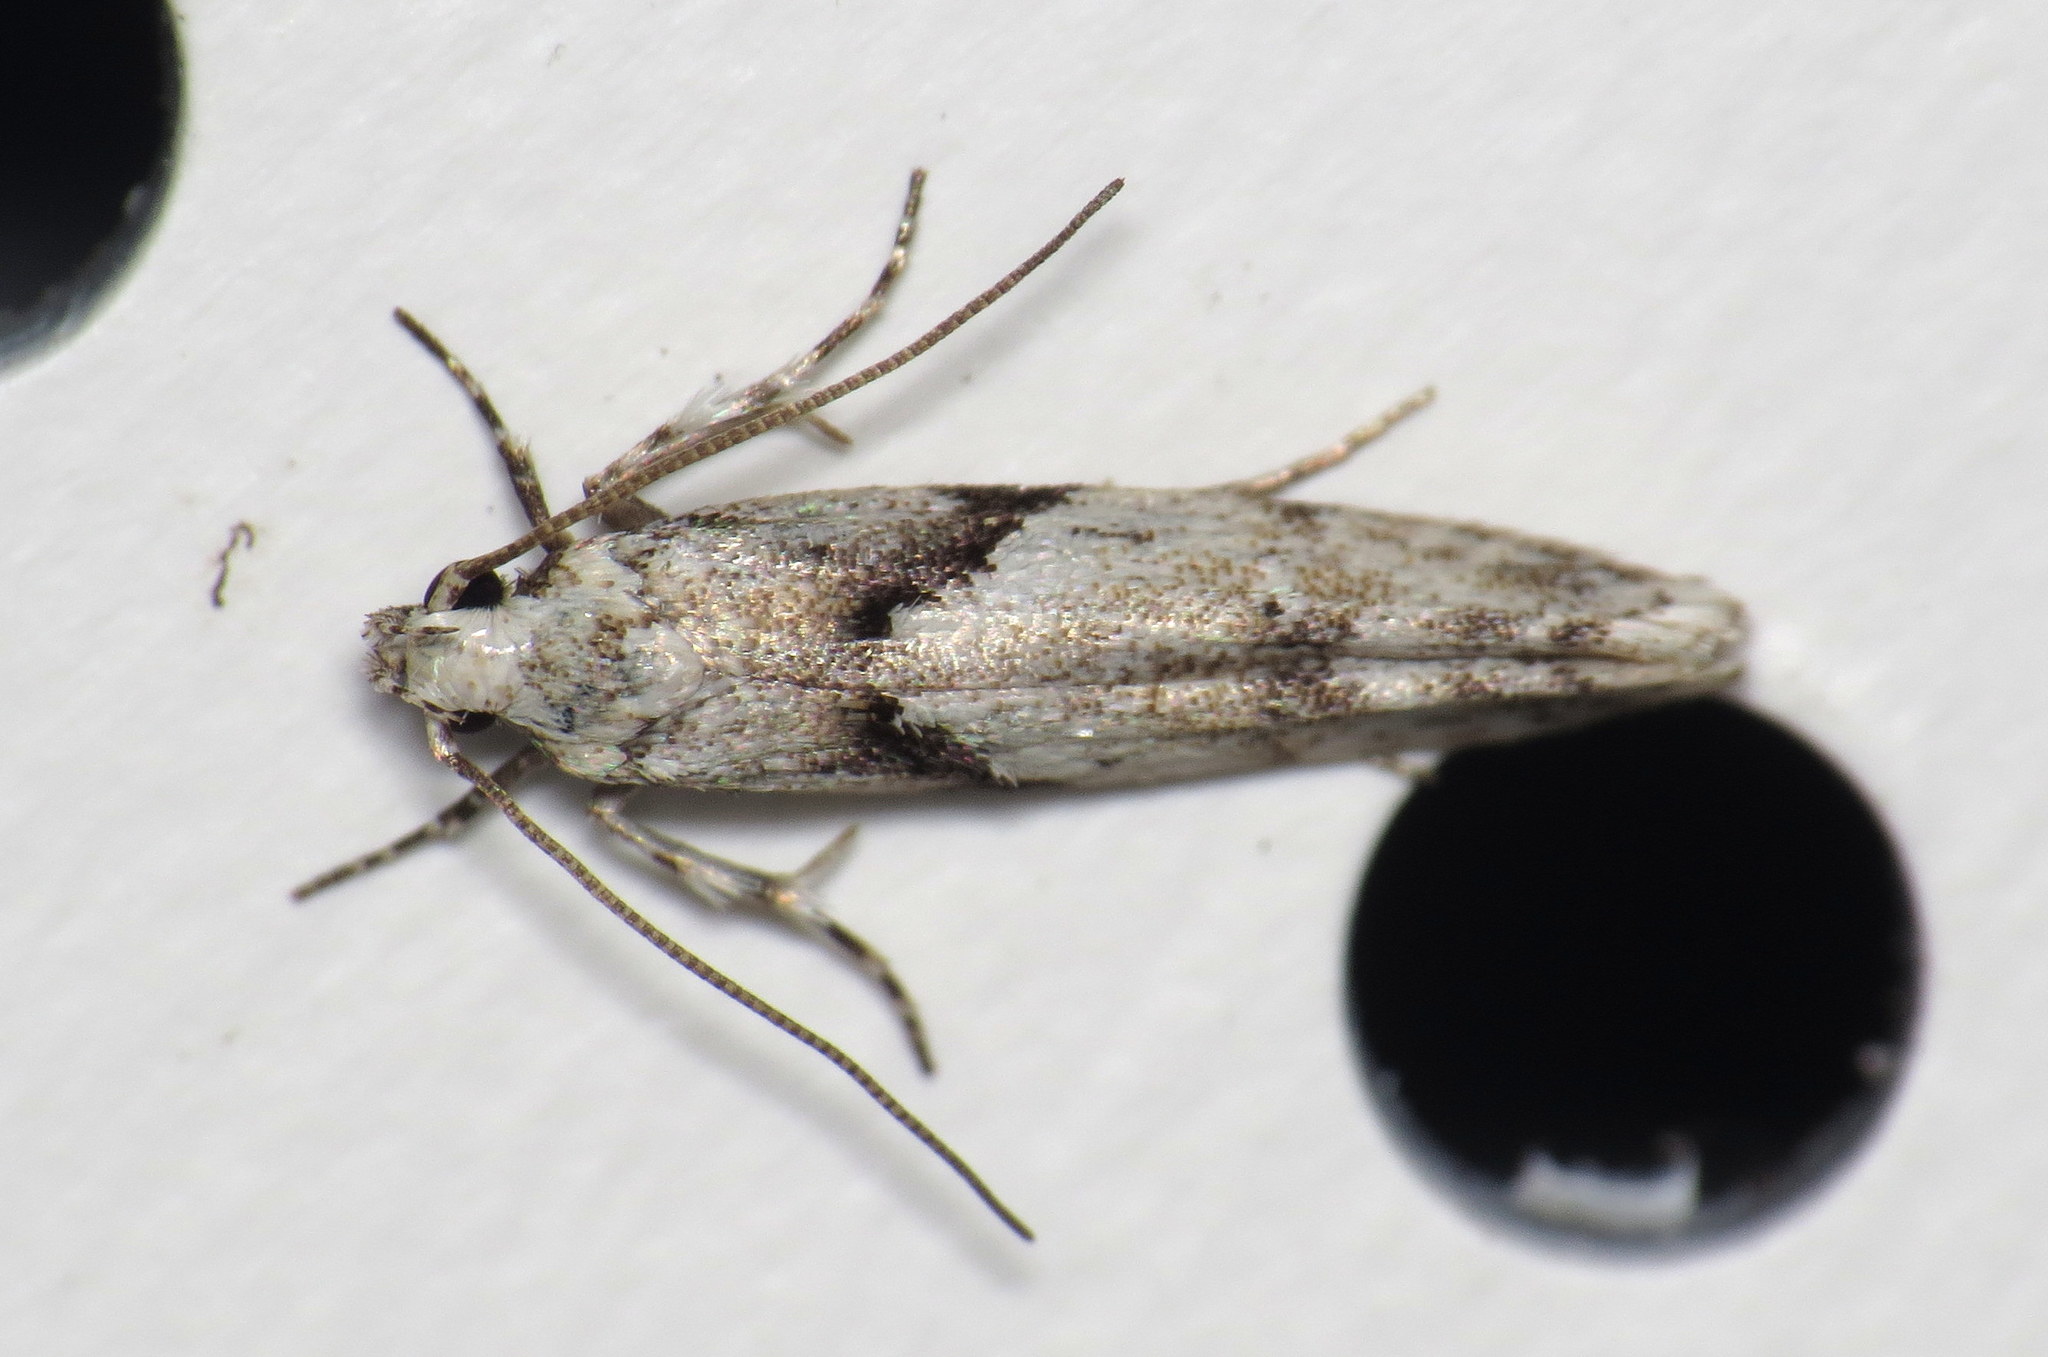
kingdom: Animalia
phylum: Arthropoda
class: Insecta
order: Lepidoptera
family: Gelechiidae
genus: Arogalea
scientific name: Arogalea cristifasciella
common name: White stripe-backed moth
